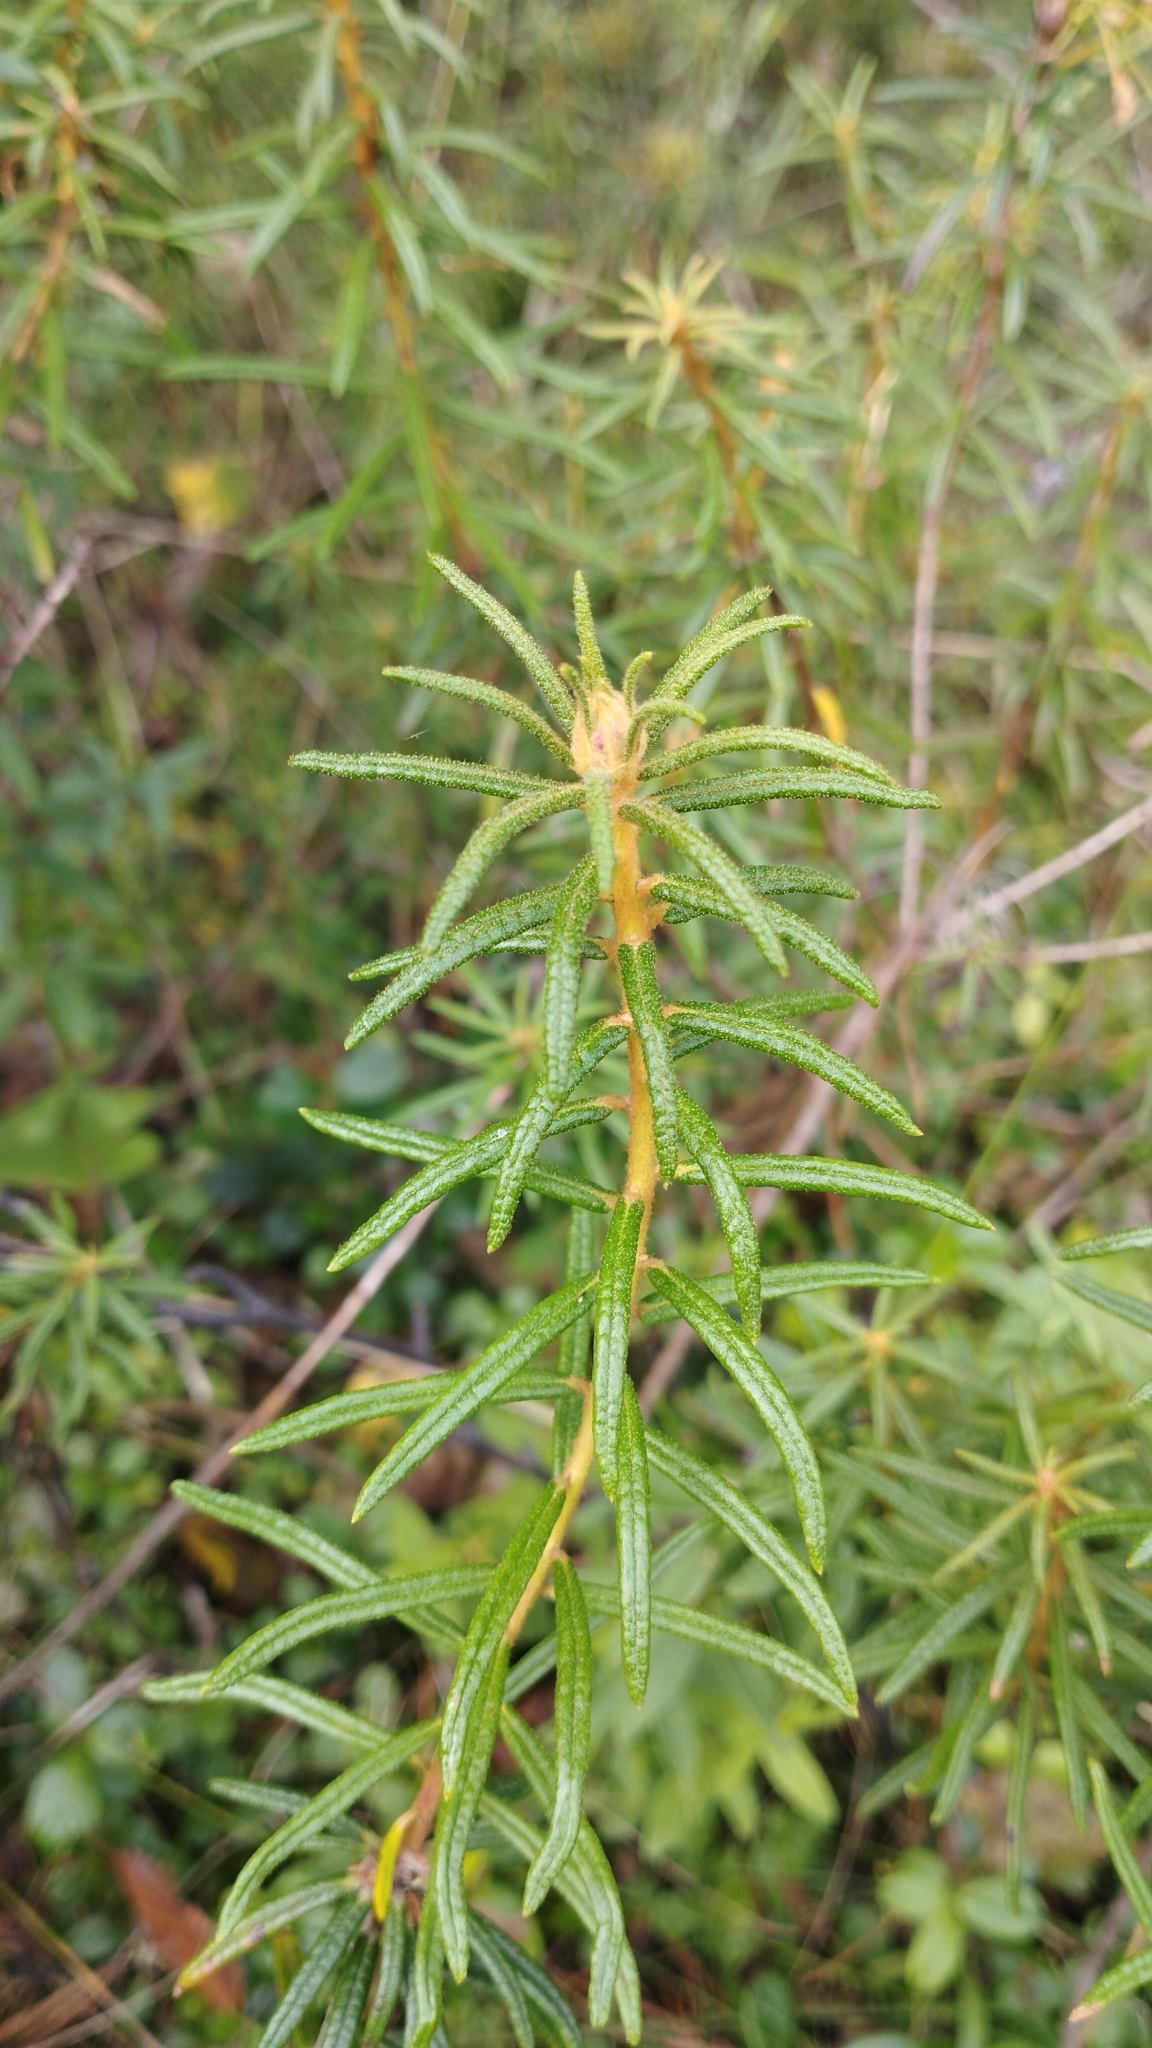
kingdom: Plantae
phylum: Tracheophyta
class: Magnoliopsida
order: Ericales
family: Ericaceae
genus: Rhododendron
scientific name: Rhododendron tomentosum
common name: Marsh labrador tea
